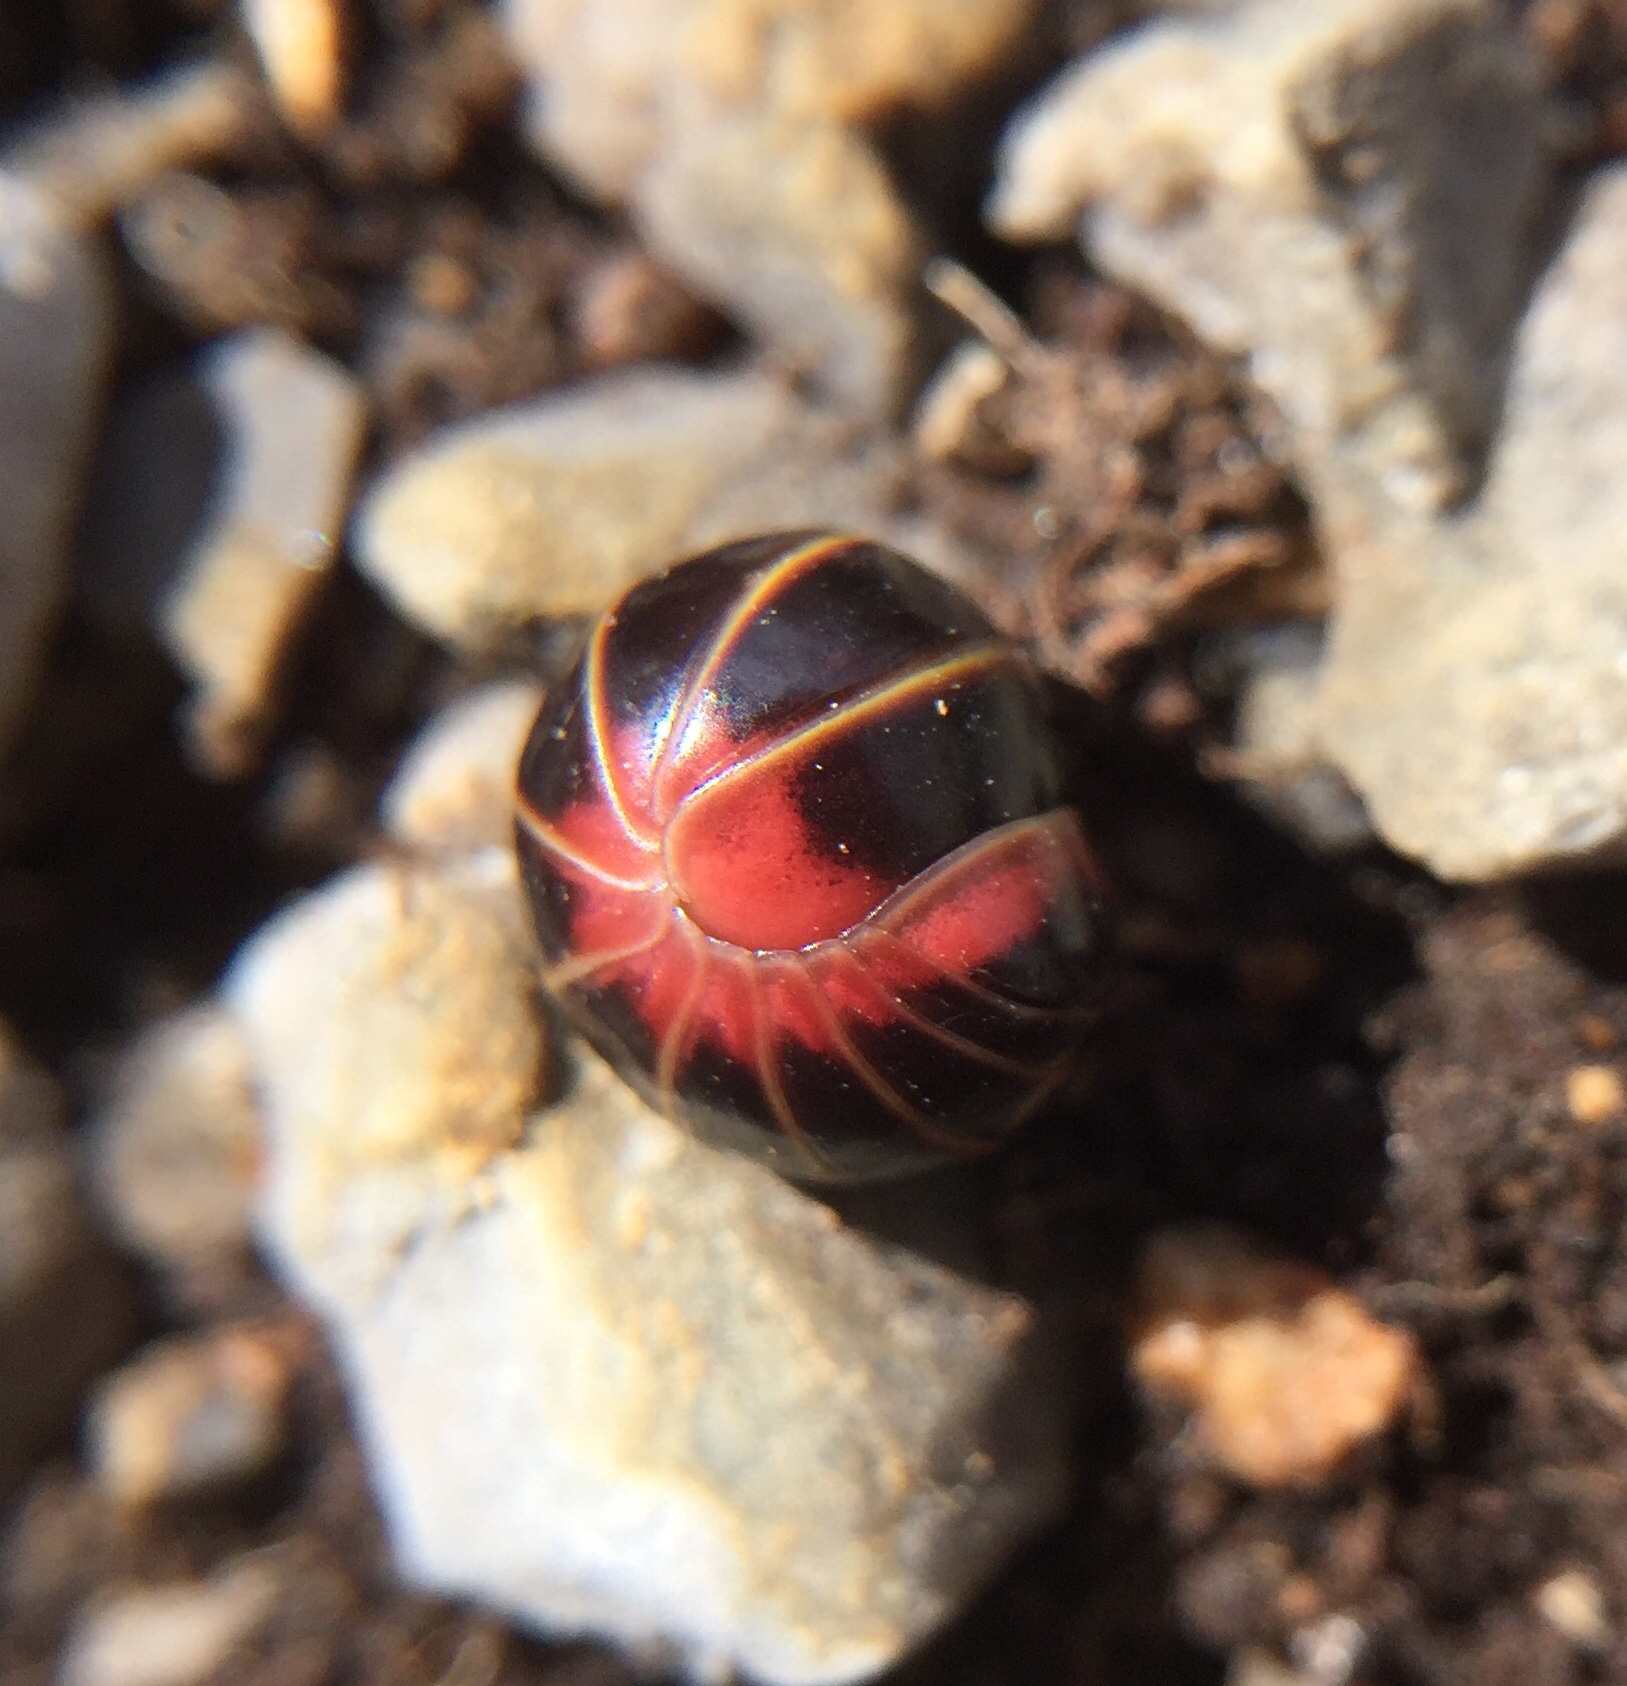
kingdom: Animalia
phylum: Arthropoda
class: Diplopoda
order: Glomerida
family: Glomeridae
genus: Glomeris
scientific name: Glomeris balcanica
